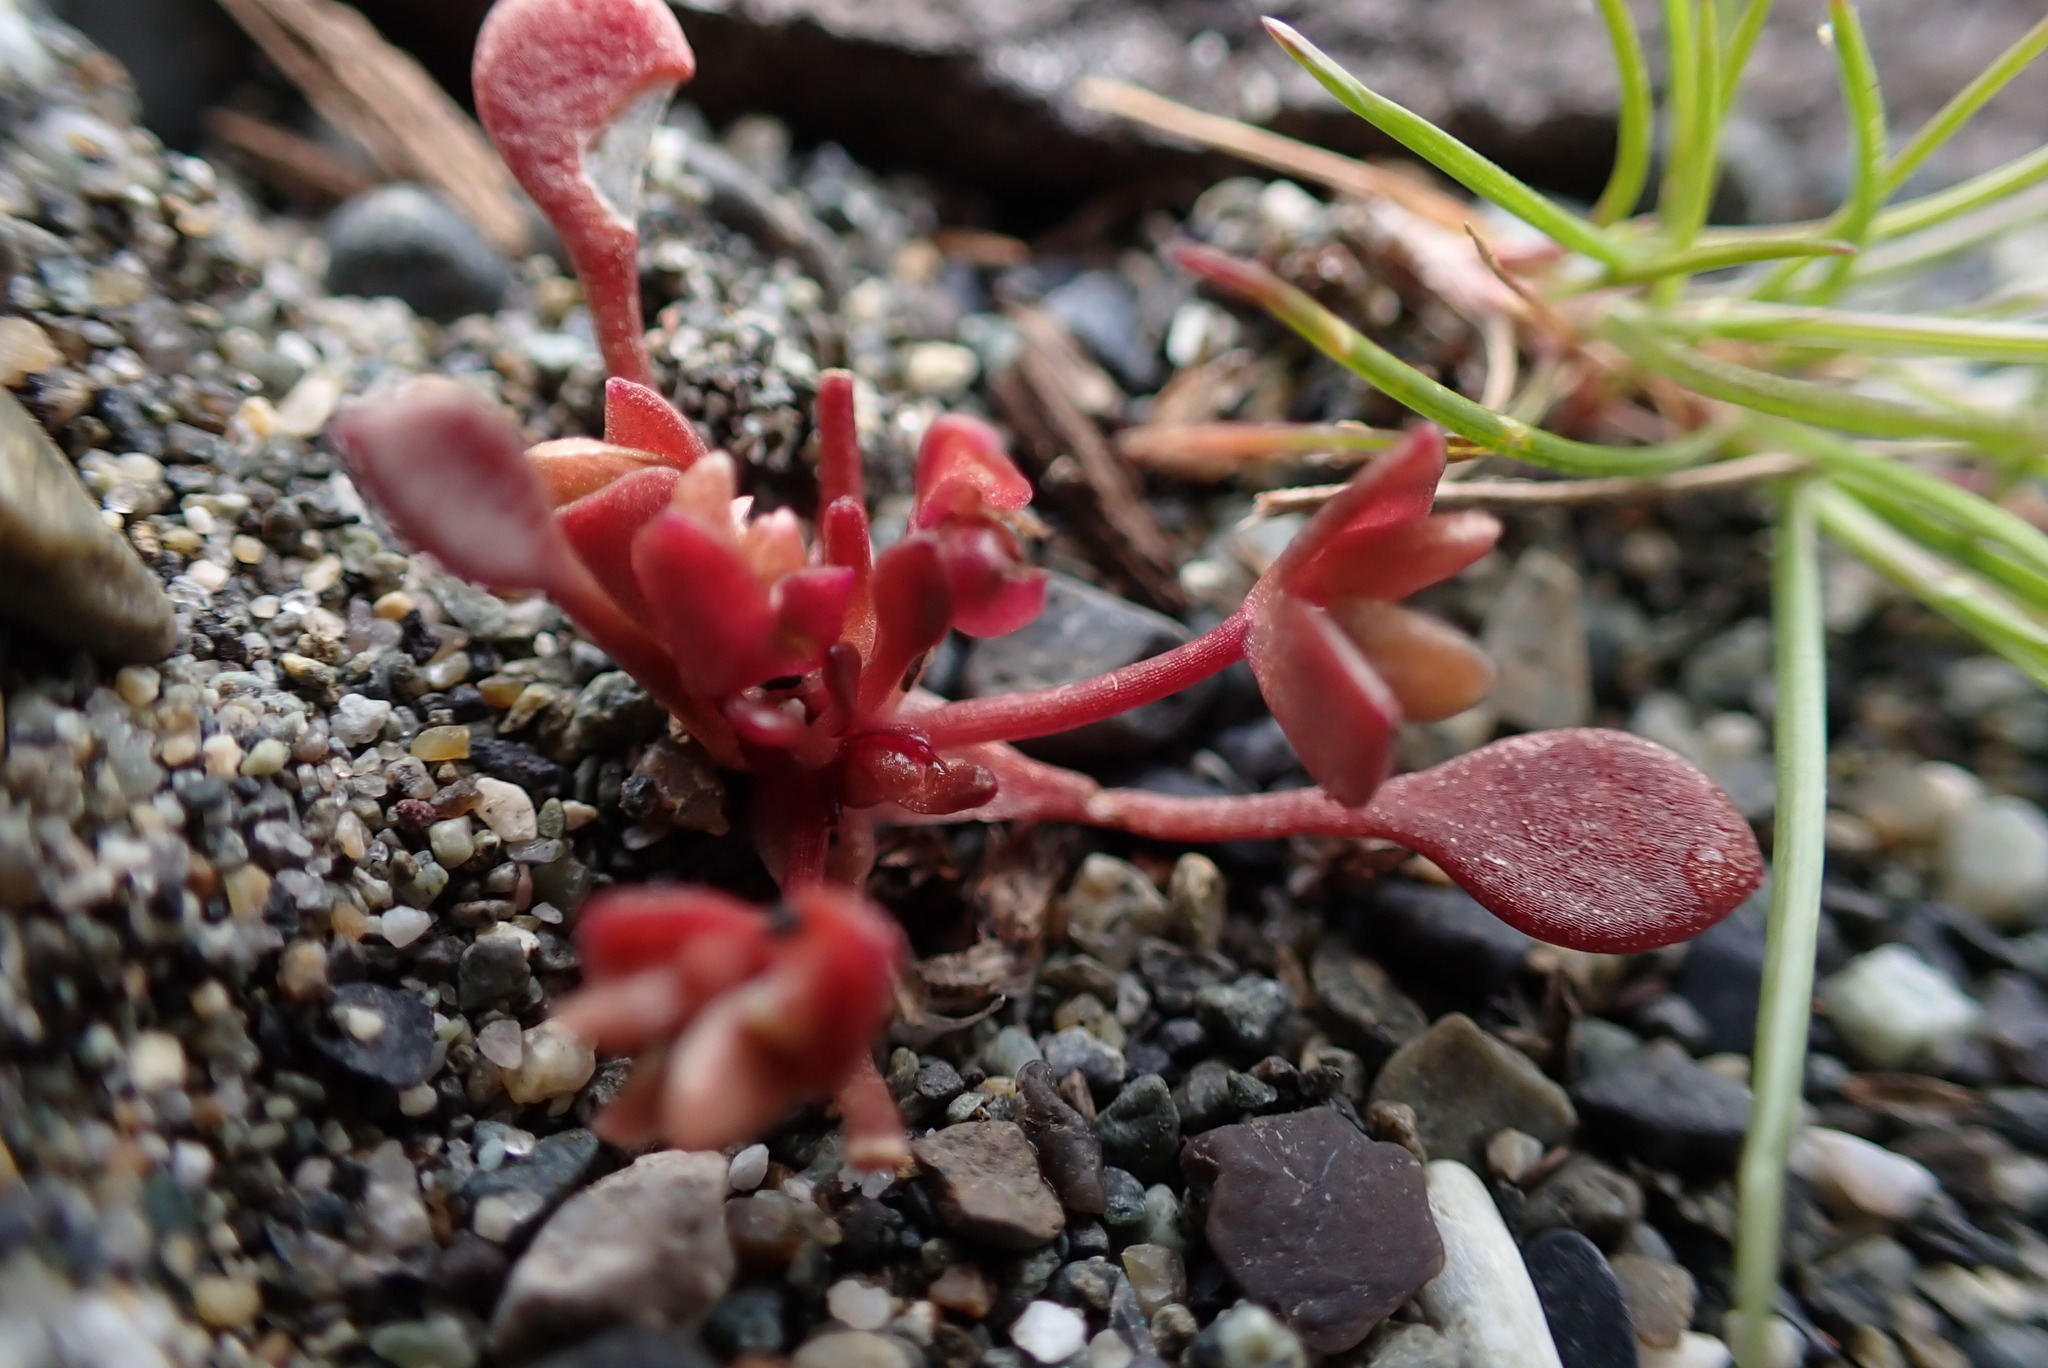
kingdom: Plantae
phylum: Tracheophyta
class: Magnoliopsida
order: Caryophyllales
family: Montiaceae
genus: Claytonia
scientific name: Claytonia rubra
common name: Erubescent miner's-lettuce
